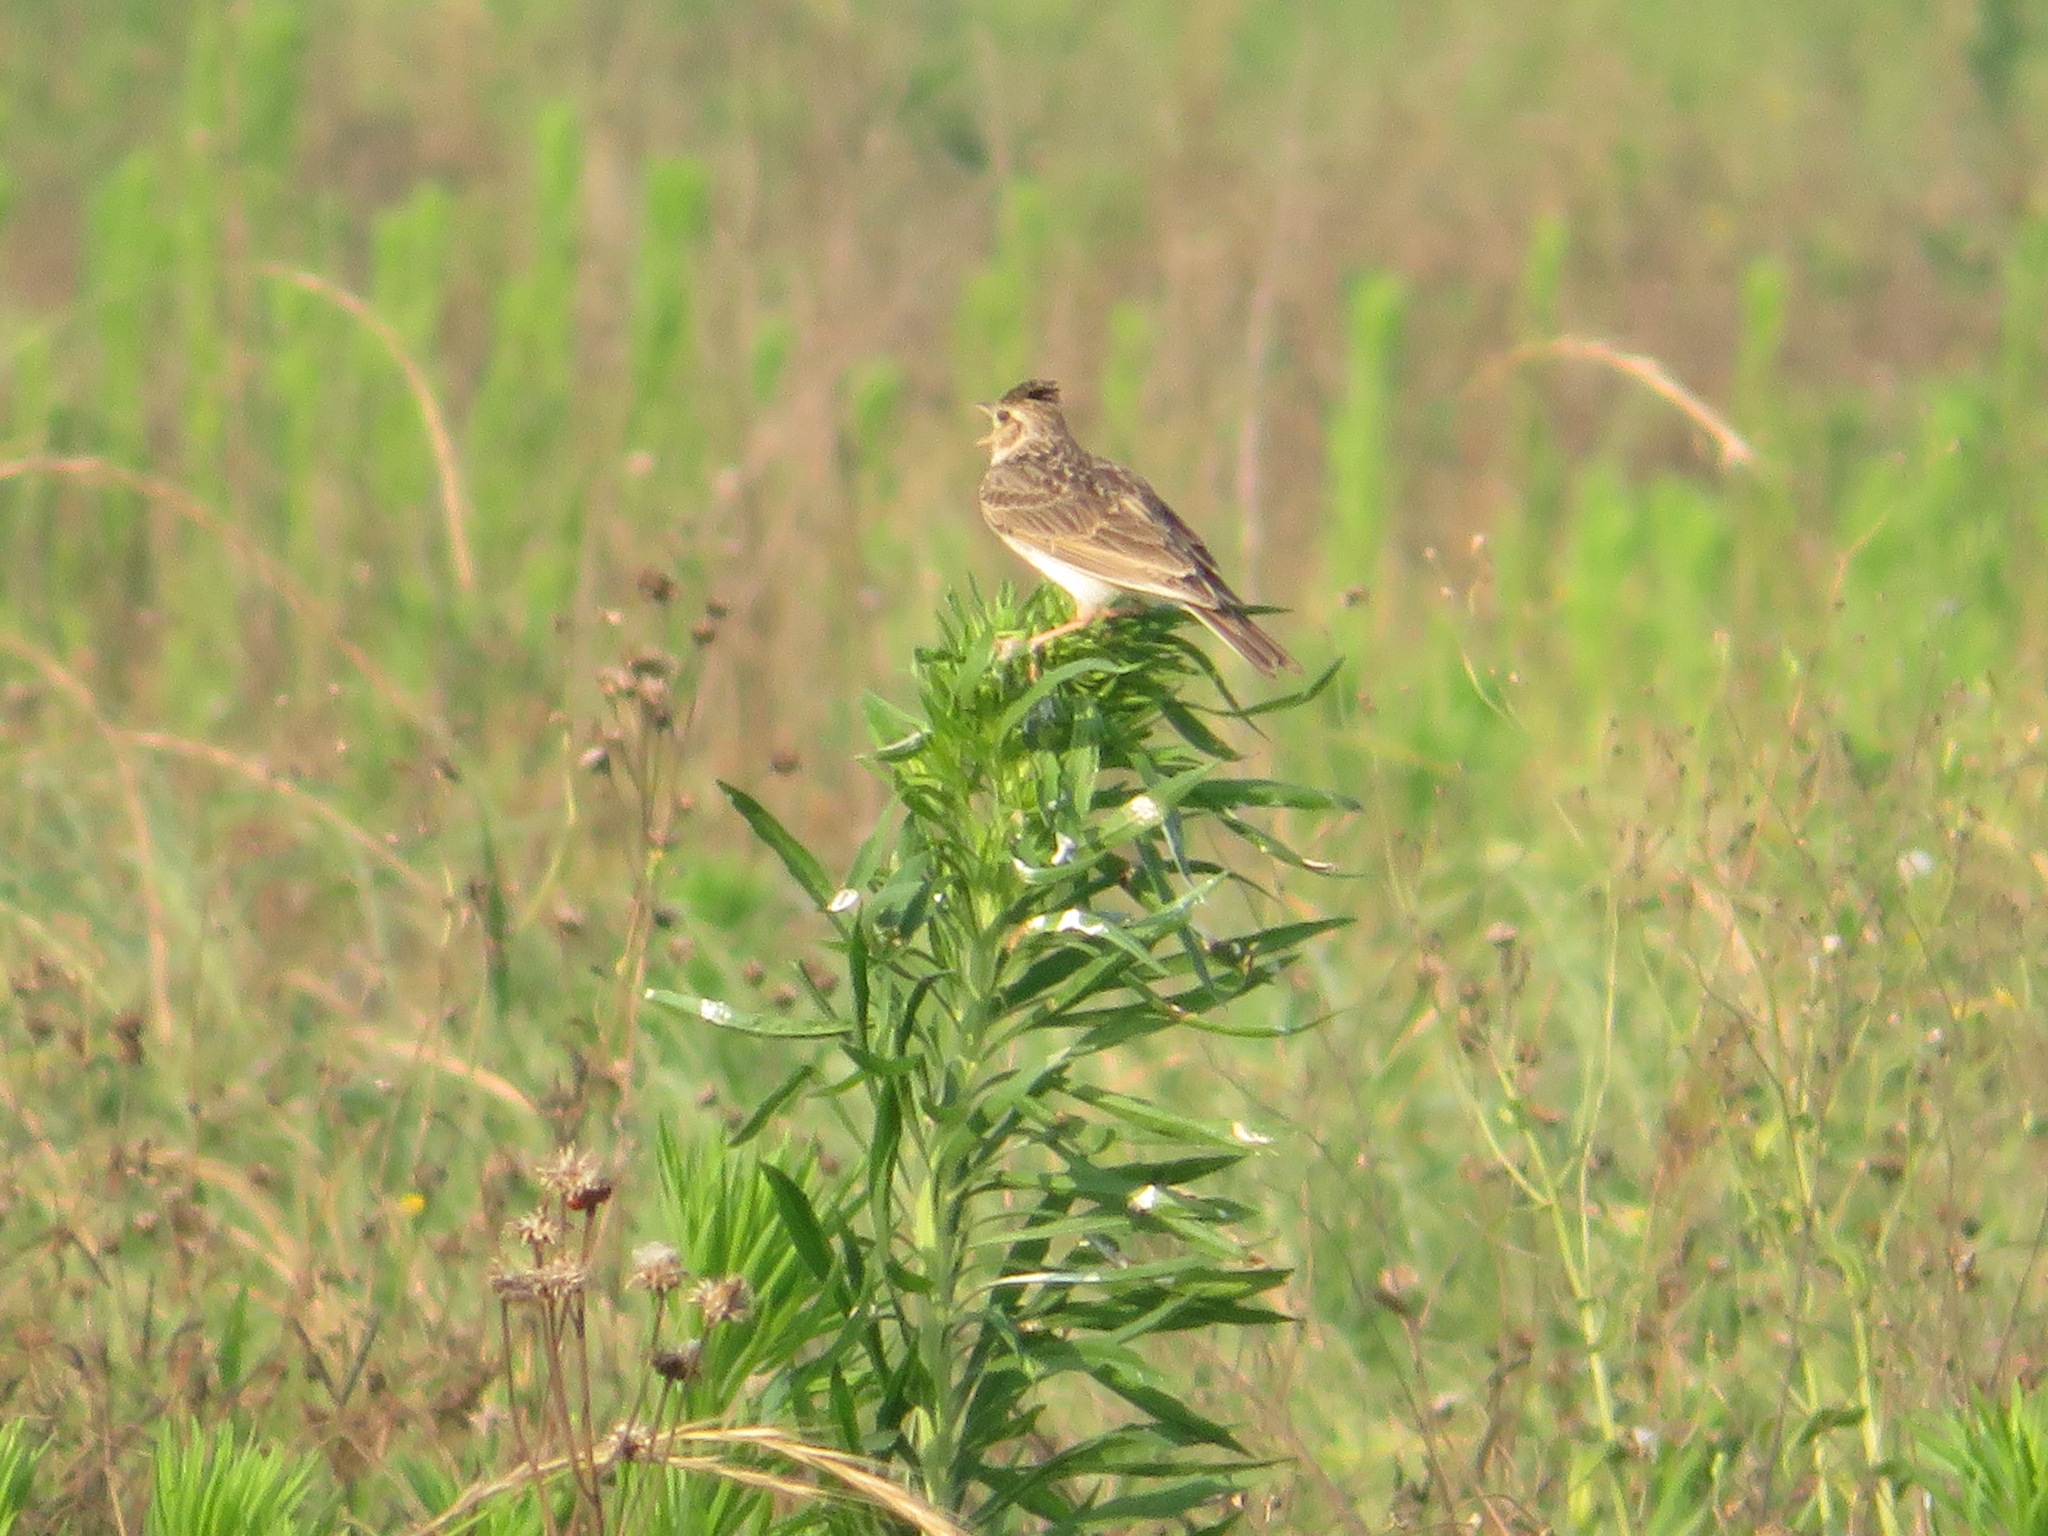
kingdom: Animalia
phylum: Chordata
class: Aves
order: Passeriformes
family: Alaudidae
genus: Alauda
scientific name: Alauda gulgula
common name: Oriental skylark
